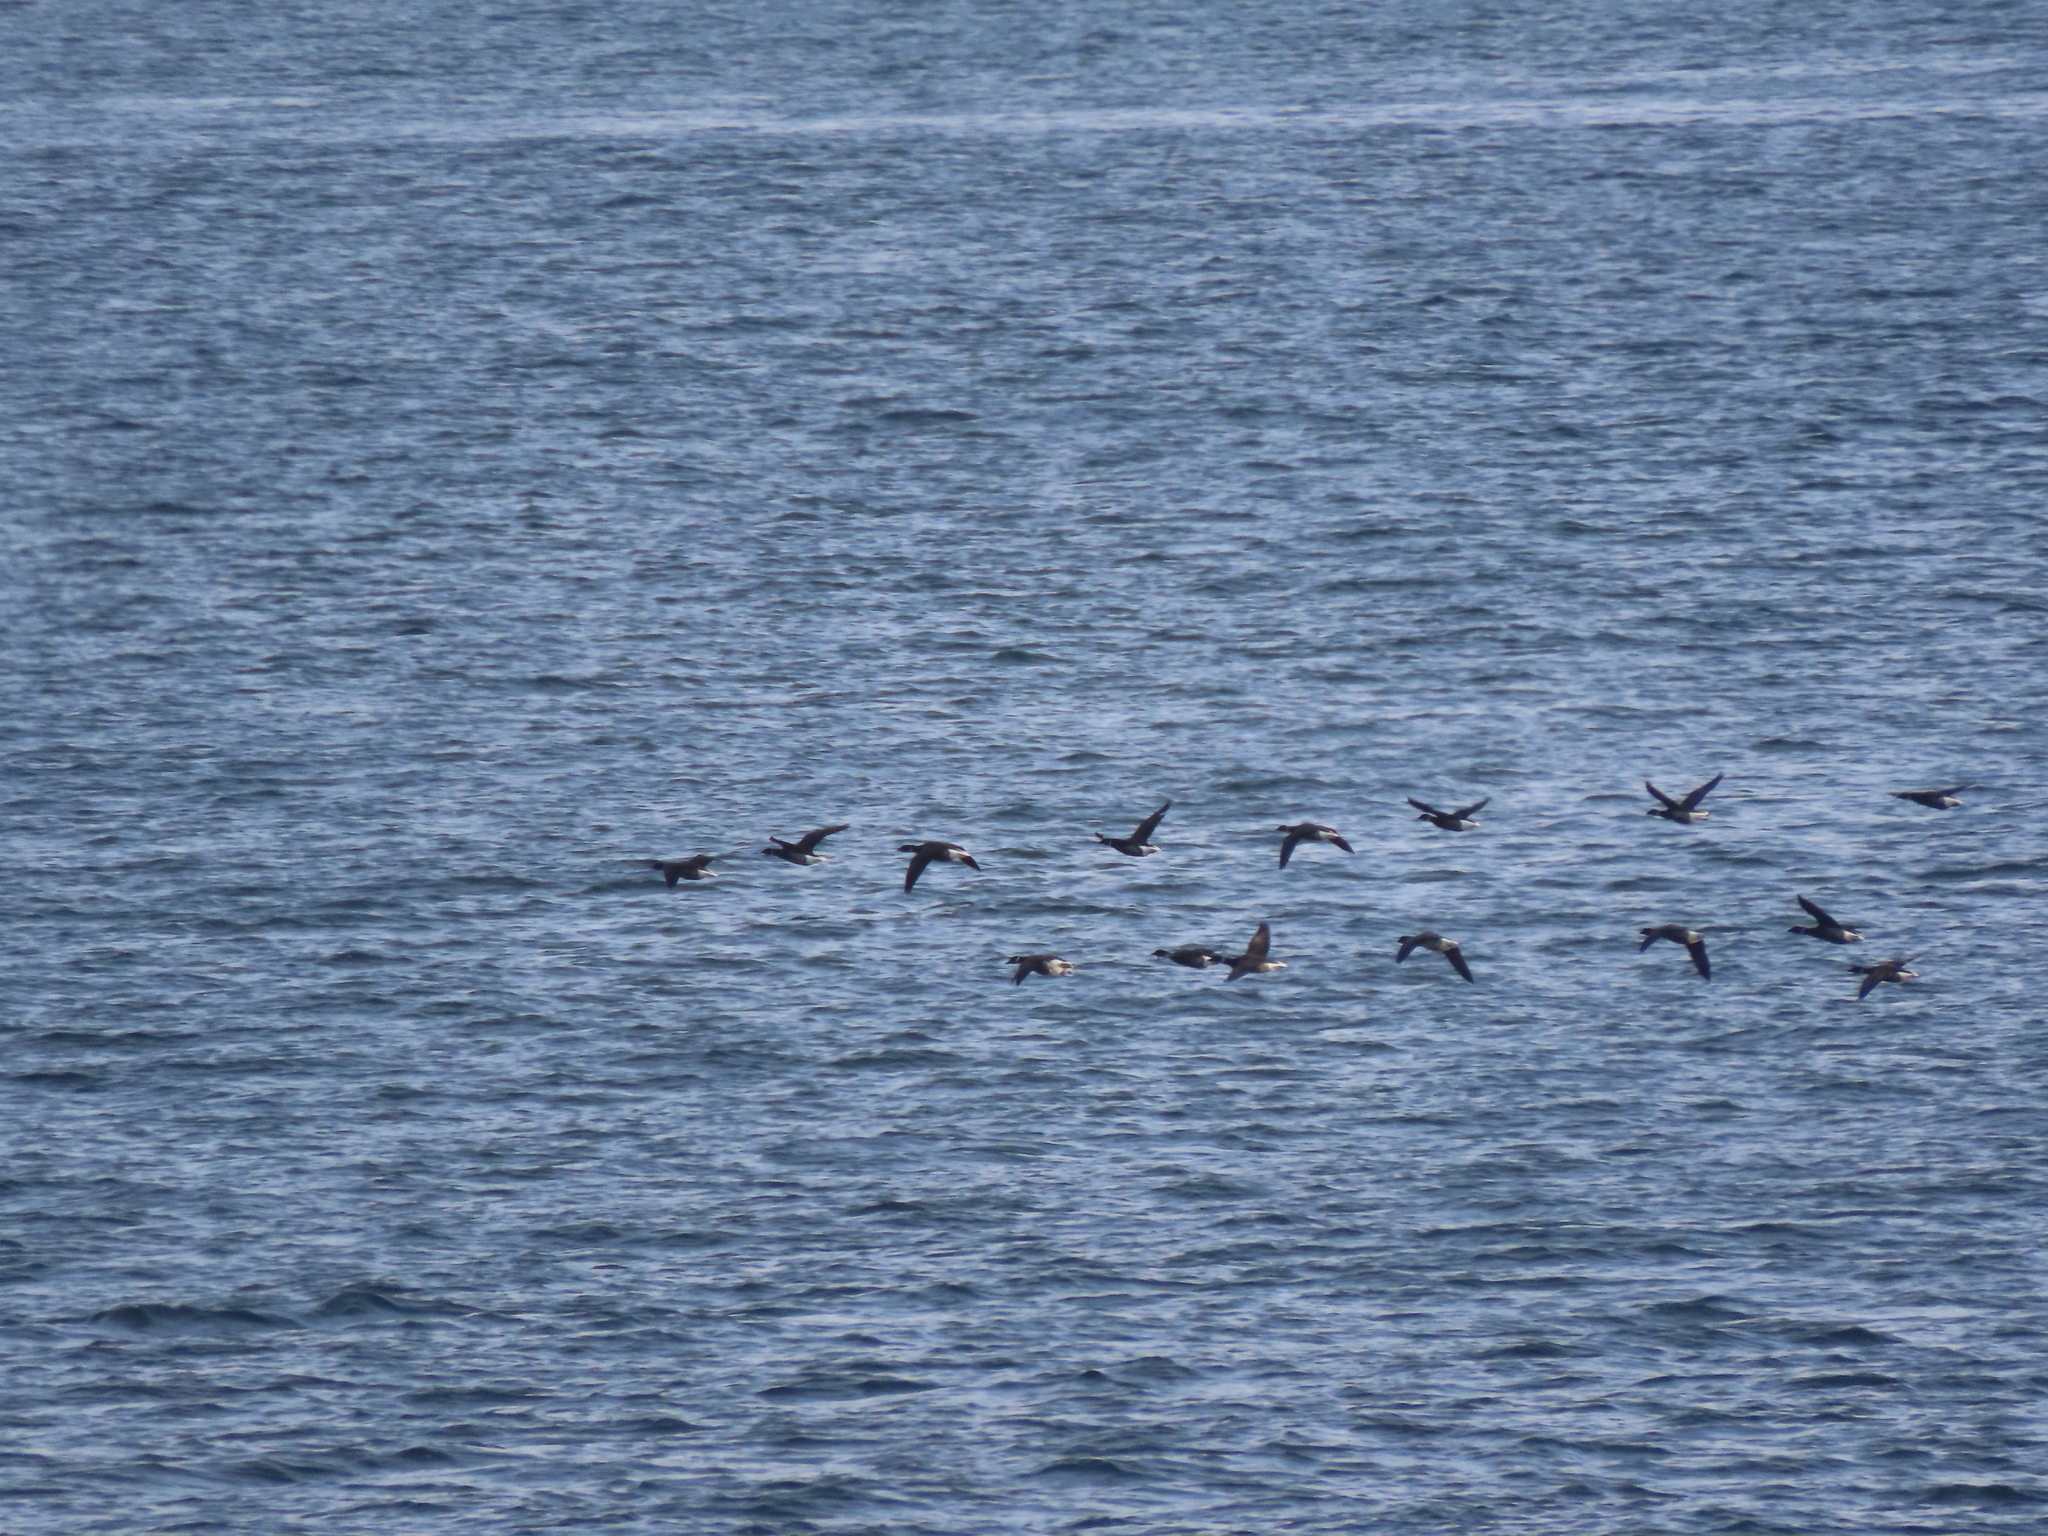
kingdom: Animalia
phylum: Chordata
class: Aves
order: Anseriformes
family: Anatidae
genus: Branta
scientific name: Branta bernicla
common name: Brant goose
